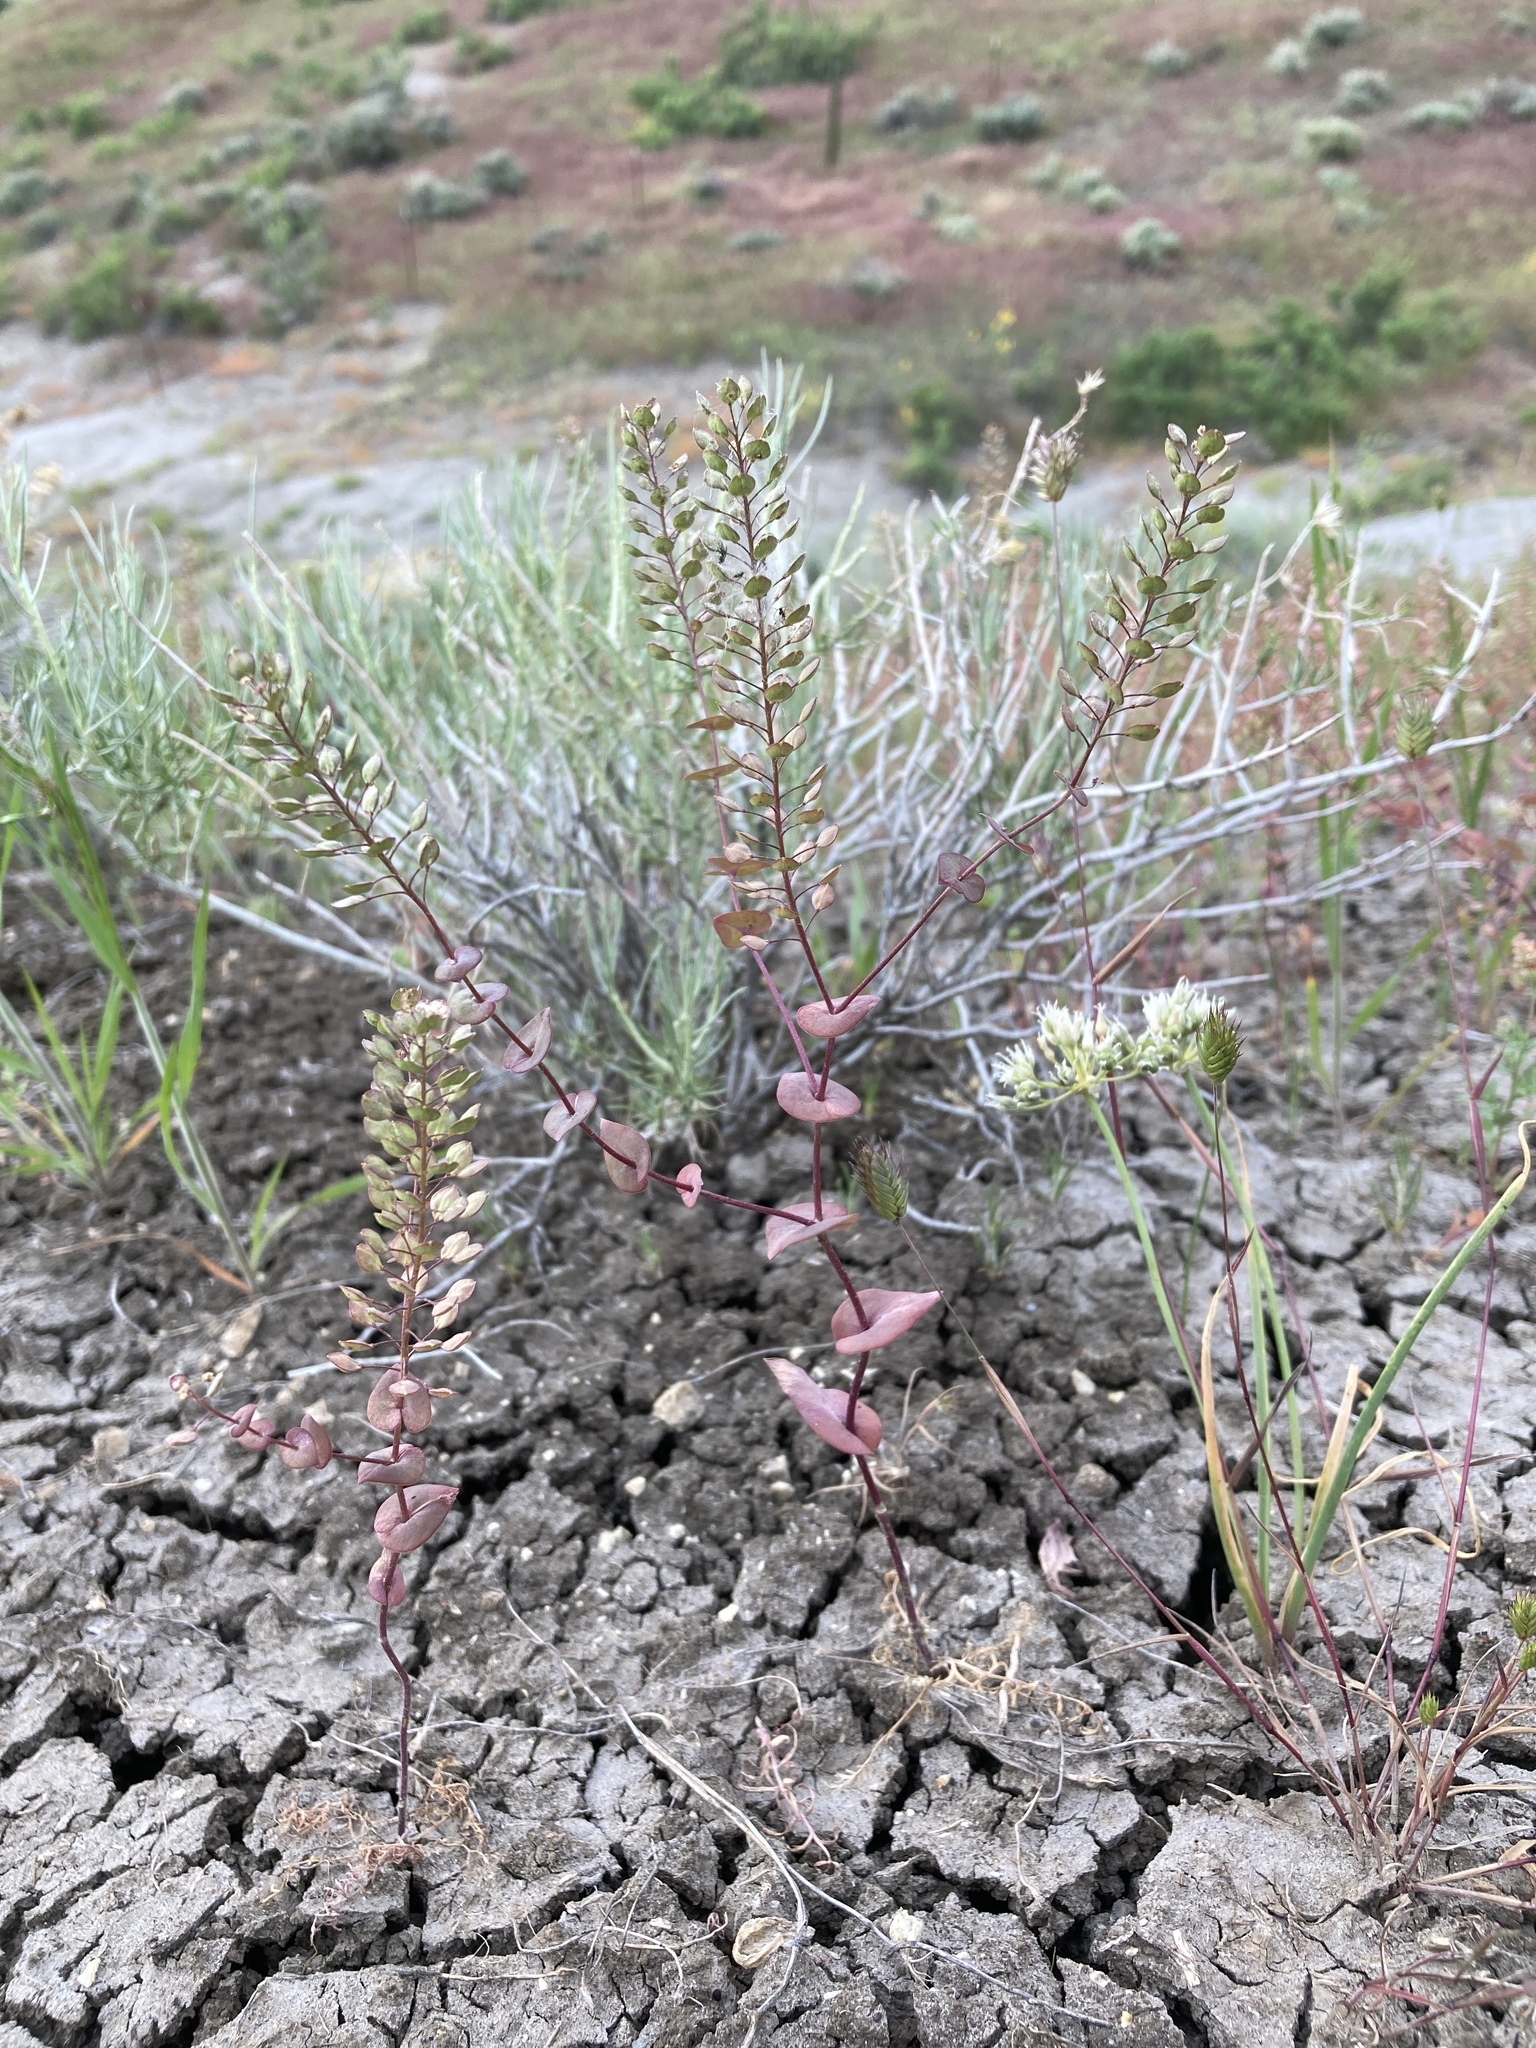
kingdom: Plantae
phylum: Tracheophyta
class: Magnoliopsida
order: Brassicales
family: Brassicaceae
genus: Lepidium
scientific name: Lepidium perfoliatum
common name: Perfoliate pepperwort
